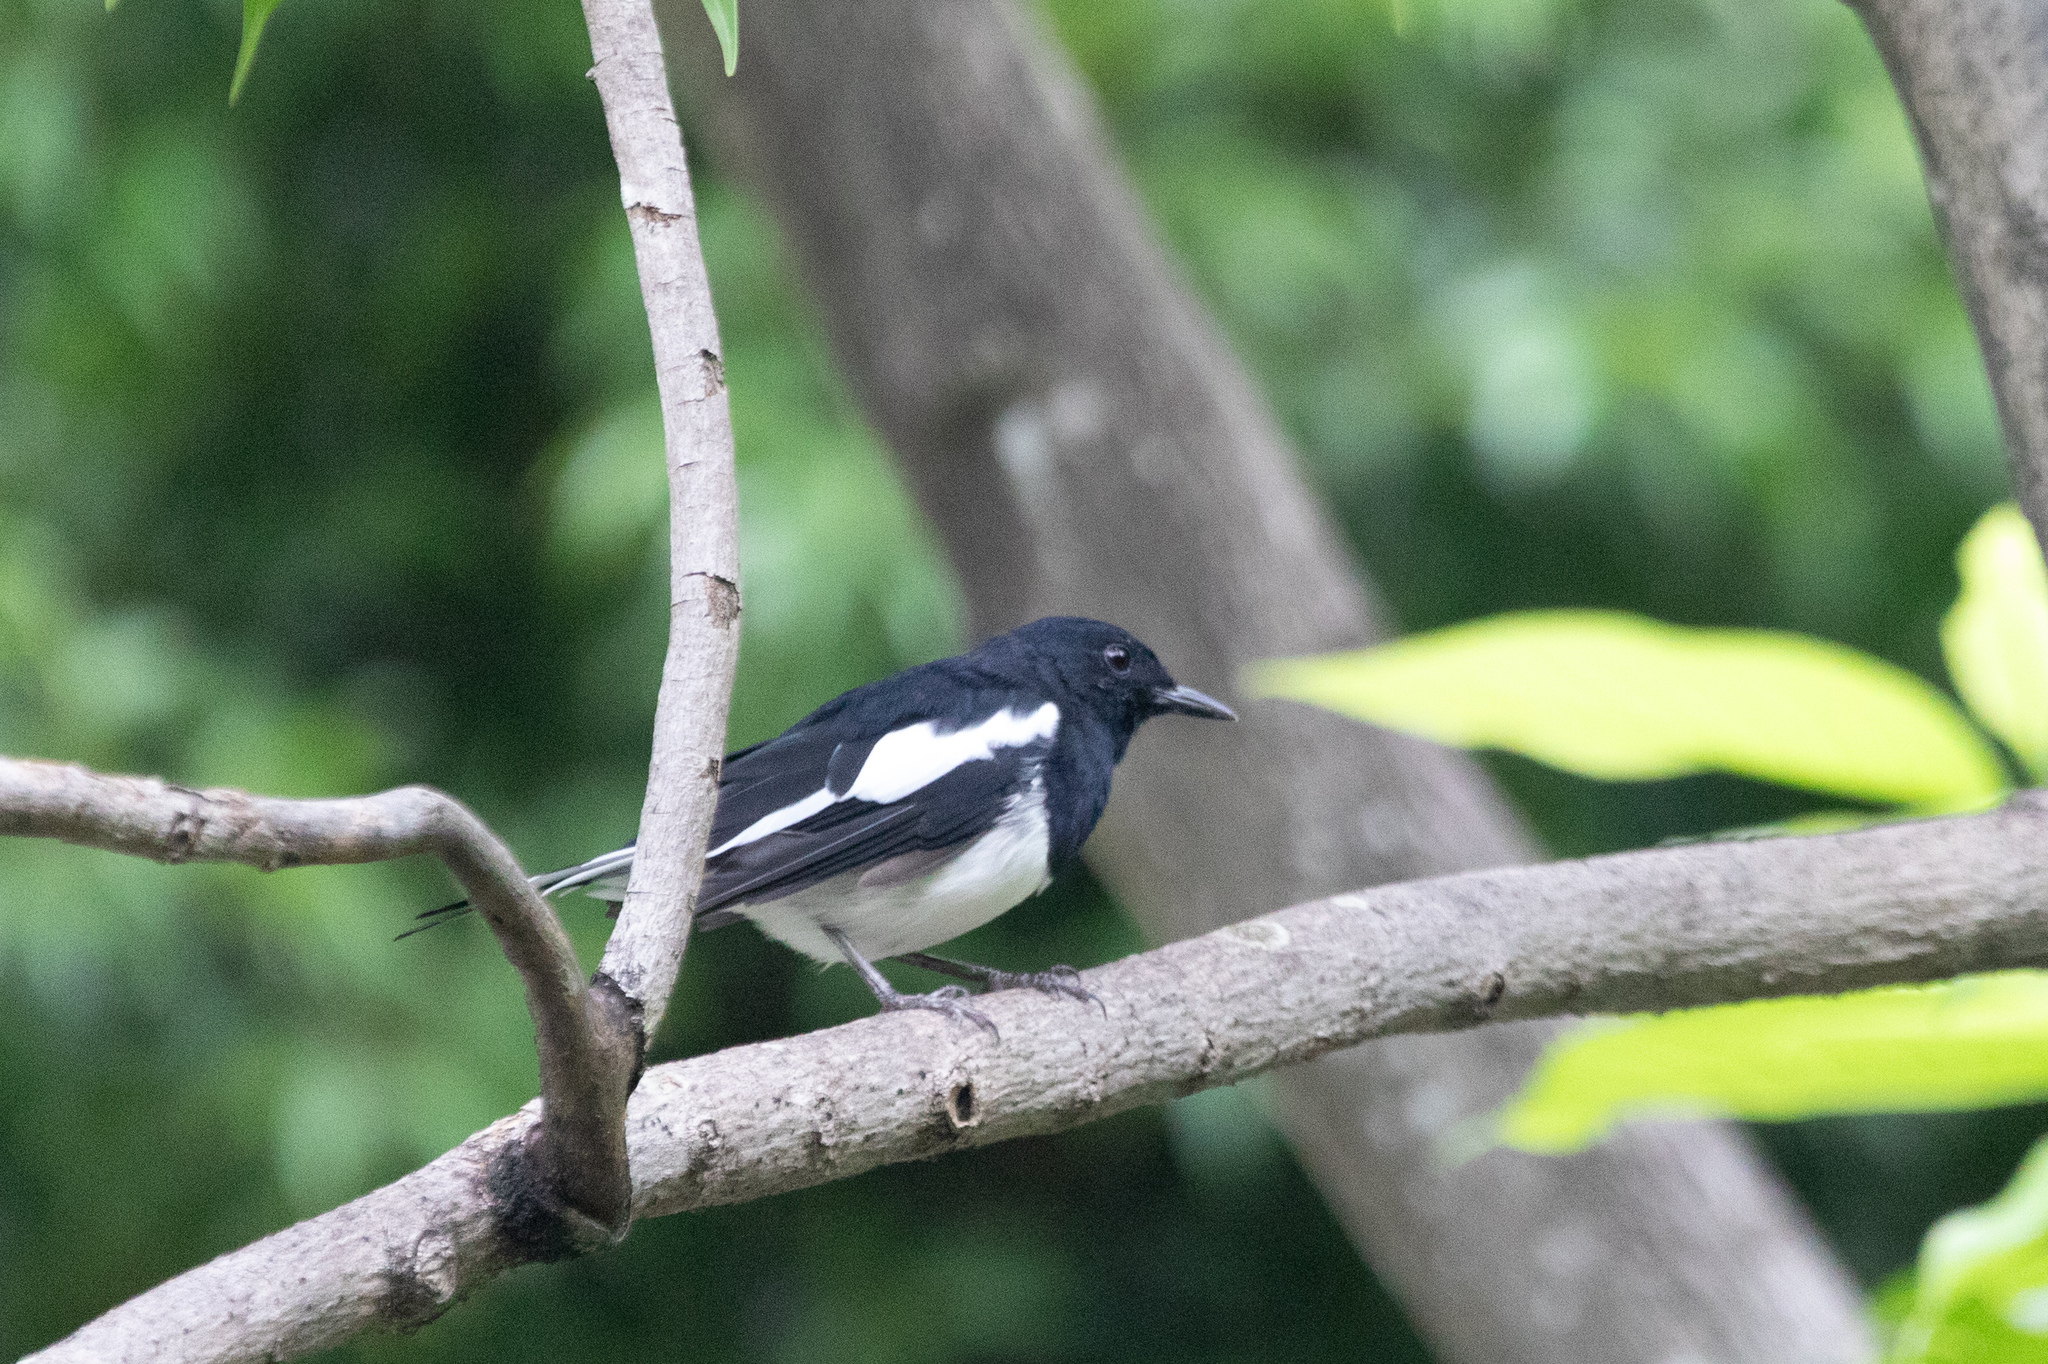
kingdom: Animalia
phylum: Chordata
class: Aves
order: Passeriformes
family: Muscicapidae
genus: Copsychus
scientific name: Copsychus saularis
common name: Oriental magpie-robin
